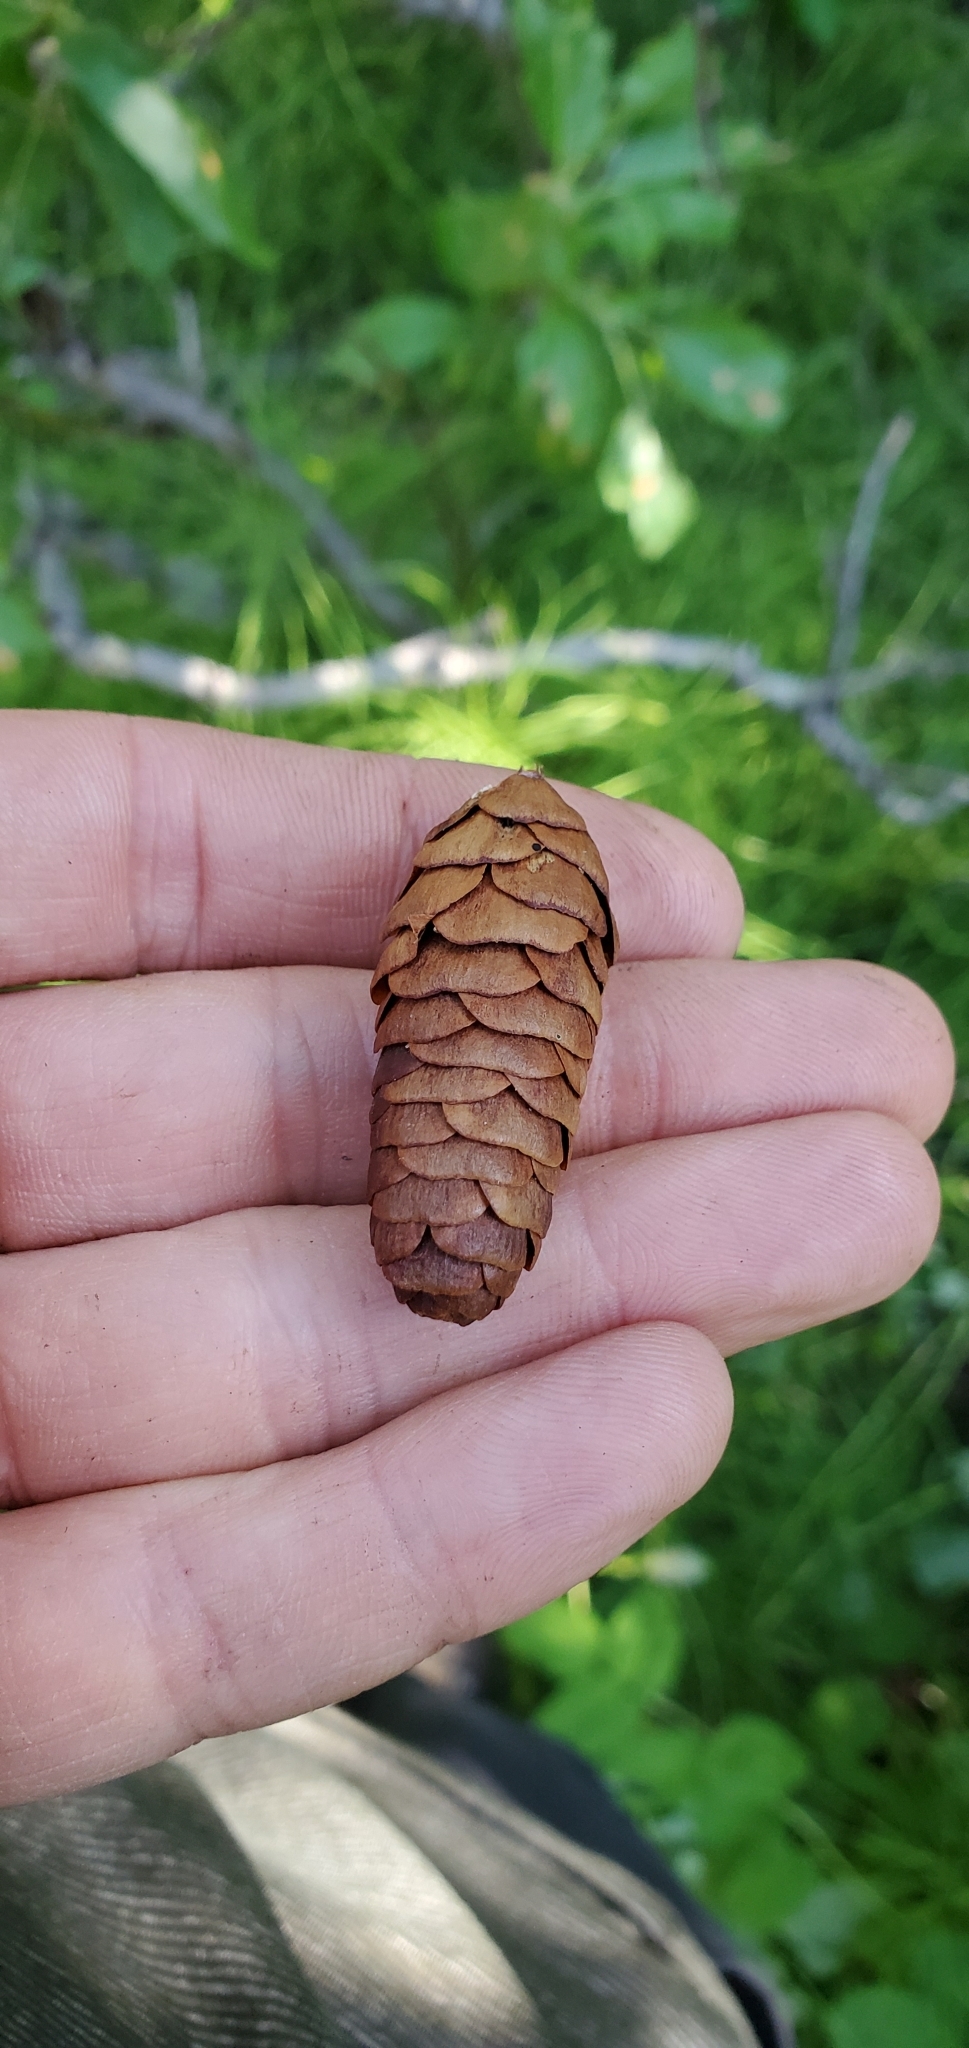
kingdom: Plantae
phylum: Tracheophyta
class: Pinopsida
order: Pinales
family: Pinaceae
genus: Picea
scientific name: Picea glauca
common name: White spruce
